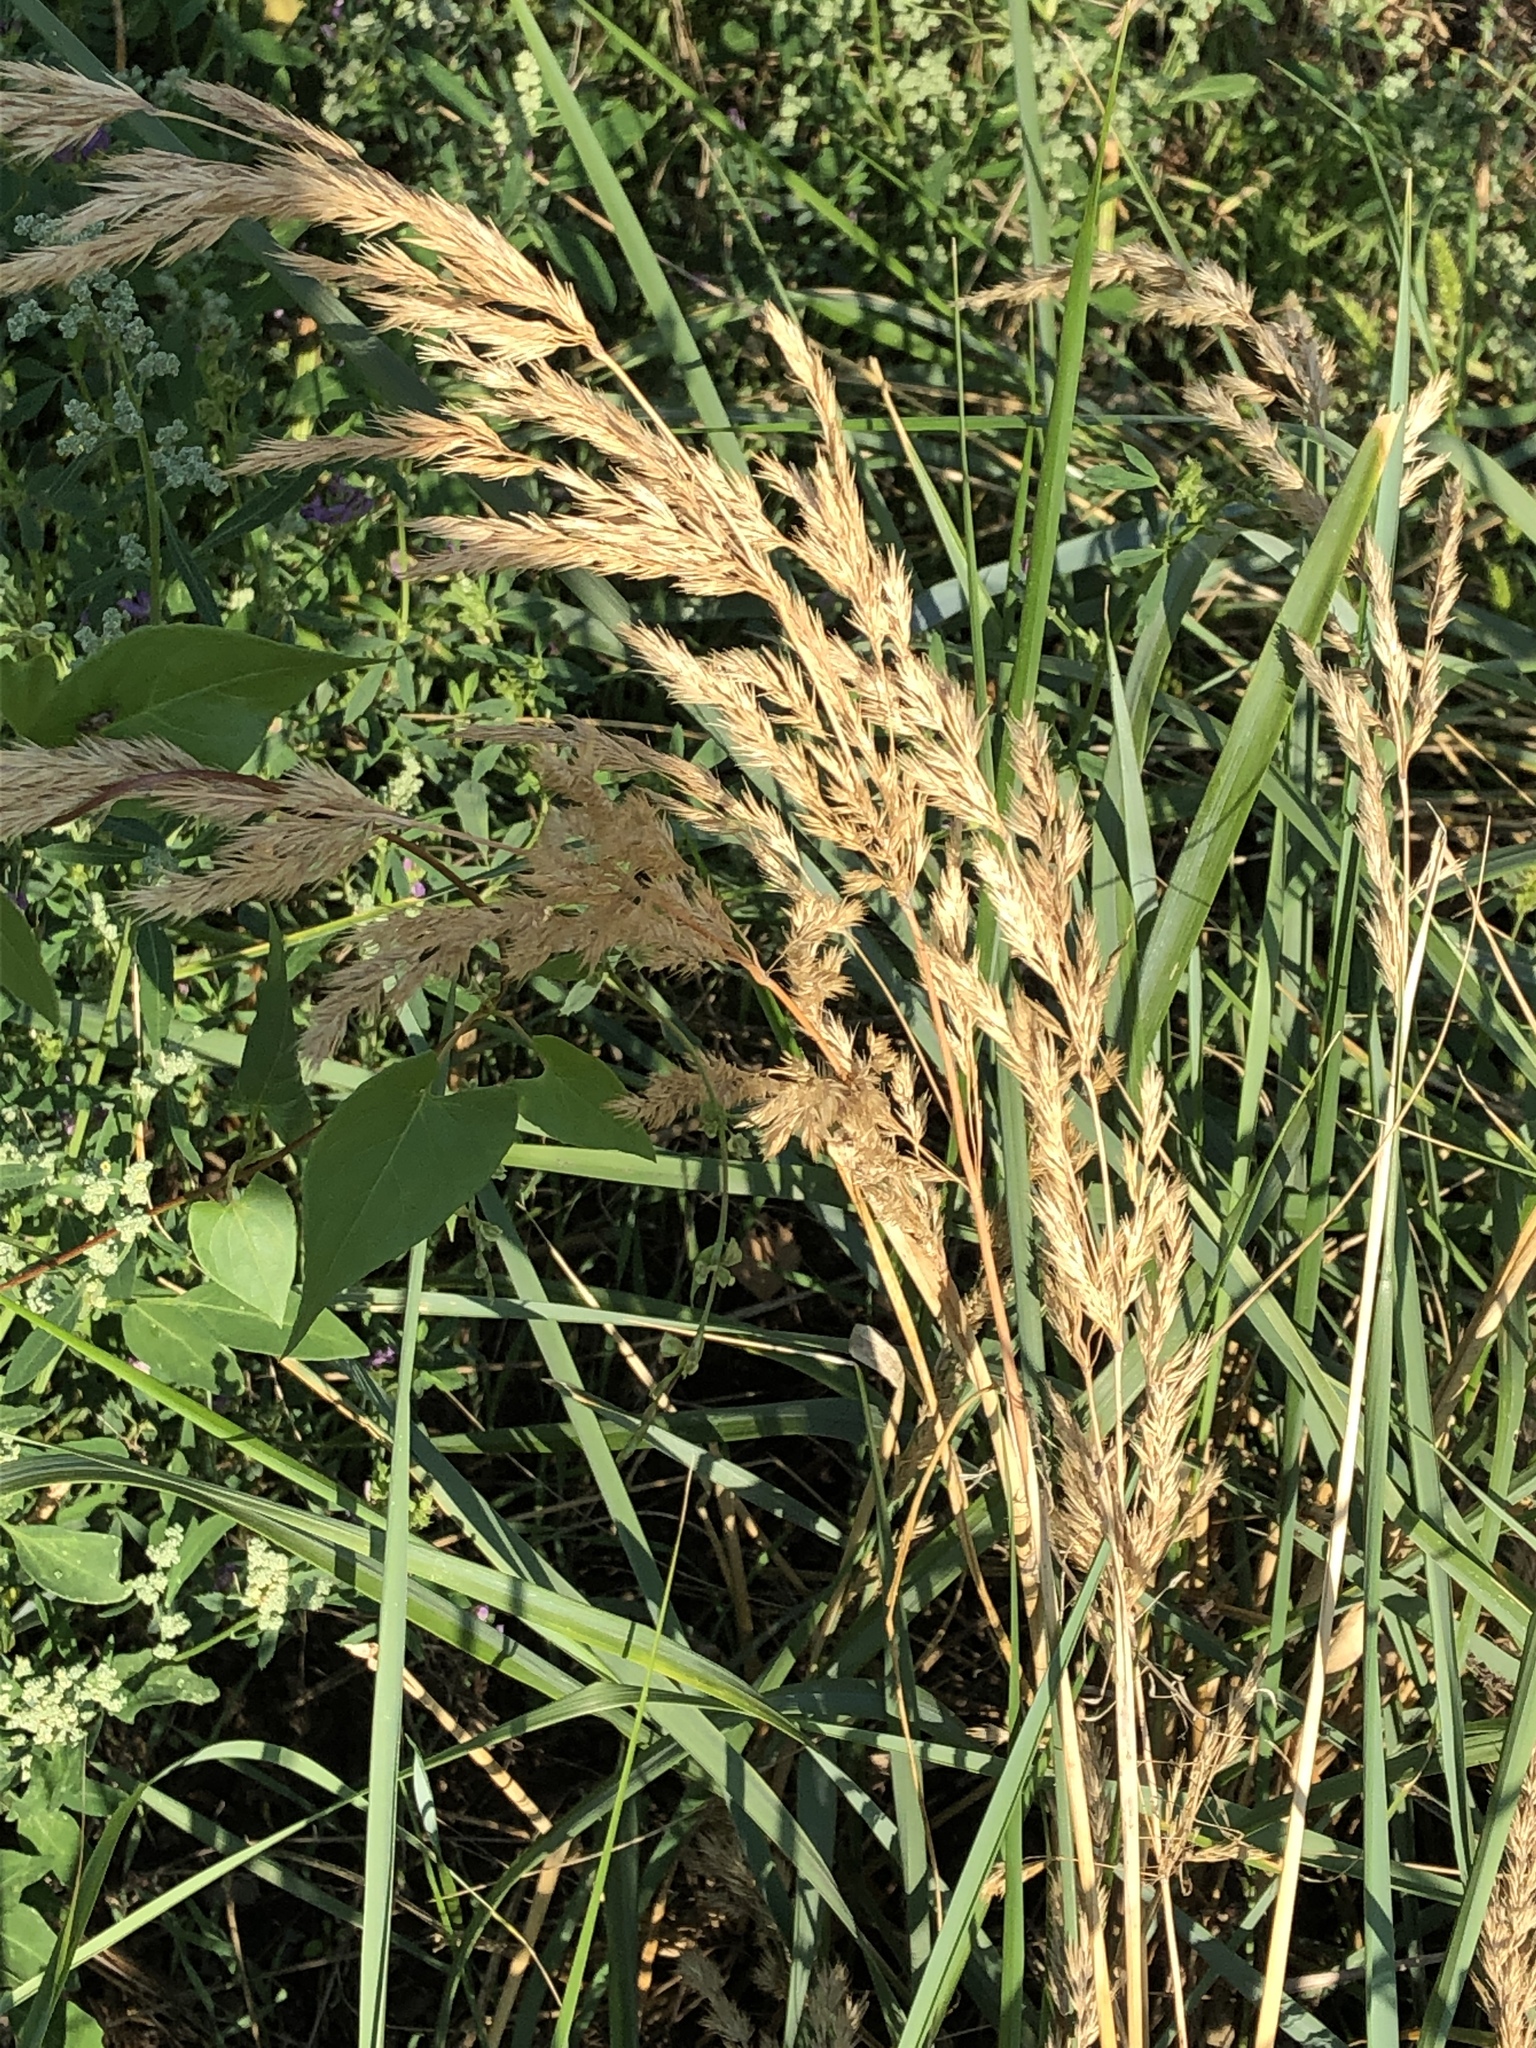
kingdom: Plantae
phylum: Tracheophyta
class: Liliopsida
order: Poales
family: Poaceae
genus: Calamagrostis
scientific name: Calamagrostis epigejos
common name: Wood small-reed
